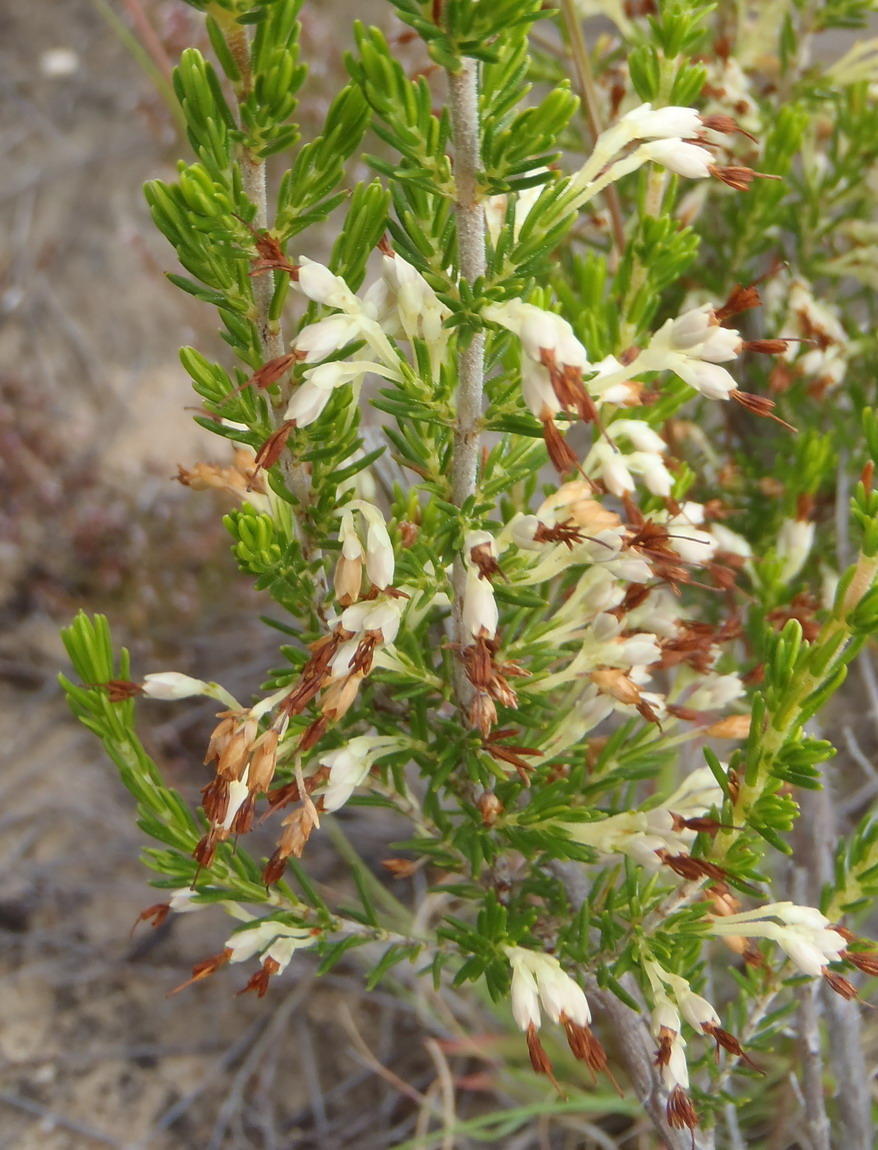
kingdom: Plantae
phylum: Tracheophyta
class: Magnoliopsida
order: Ericales
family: Ericaceae
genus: Erica
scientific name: Erica imbricata
